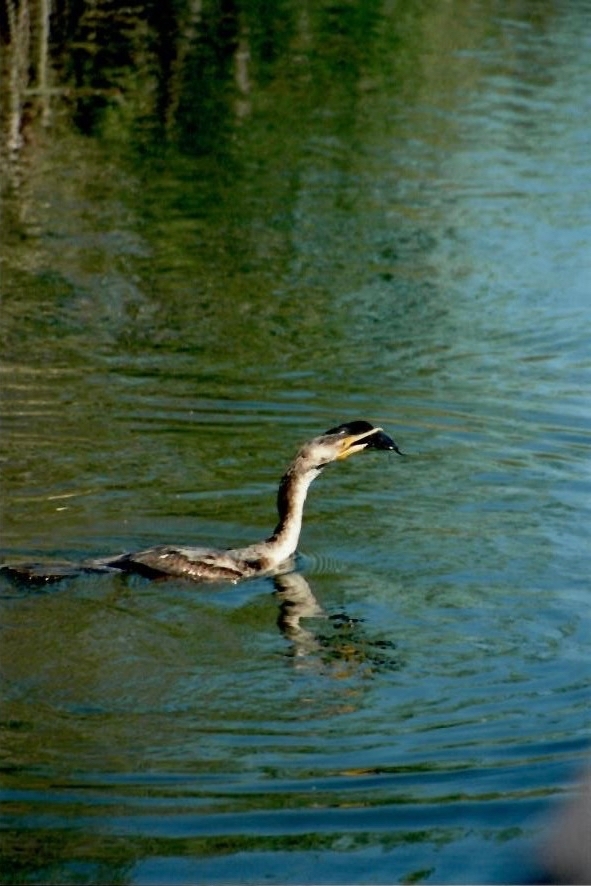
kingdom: Animalia
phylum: Chordata
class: Aves
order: Suliformes
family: Phalacrocoracidae
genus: Phalacrocorax
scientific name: Phalacrocorax auritus
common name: Double-crested cormorant
